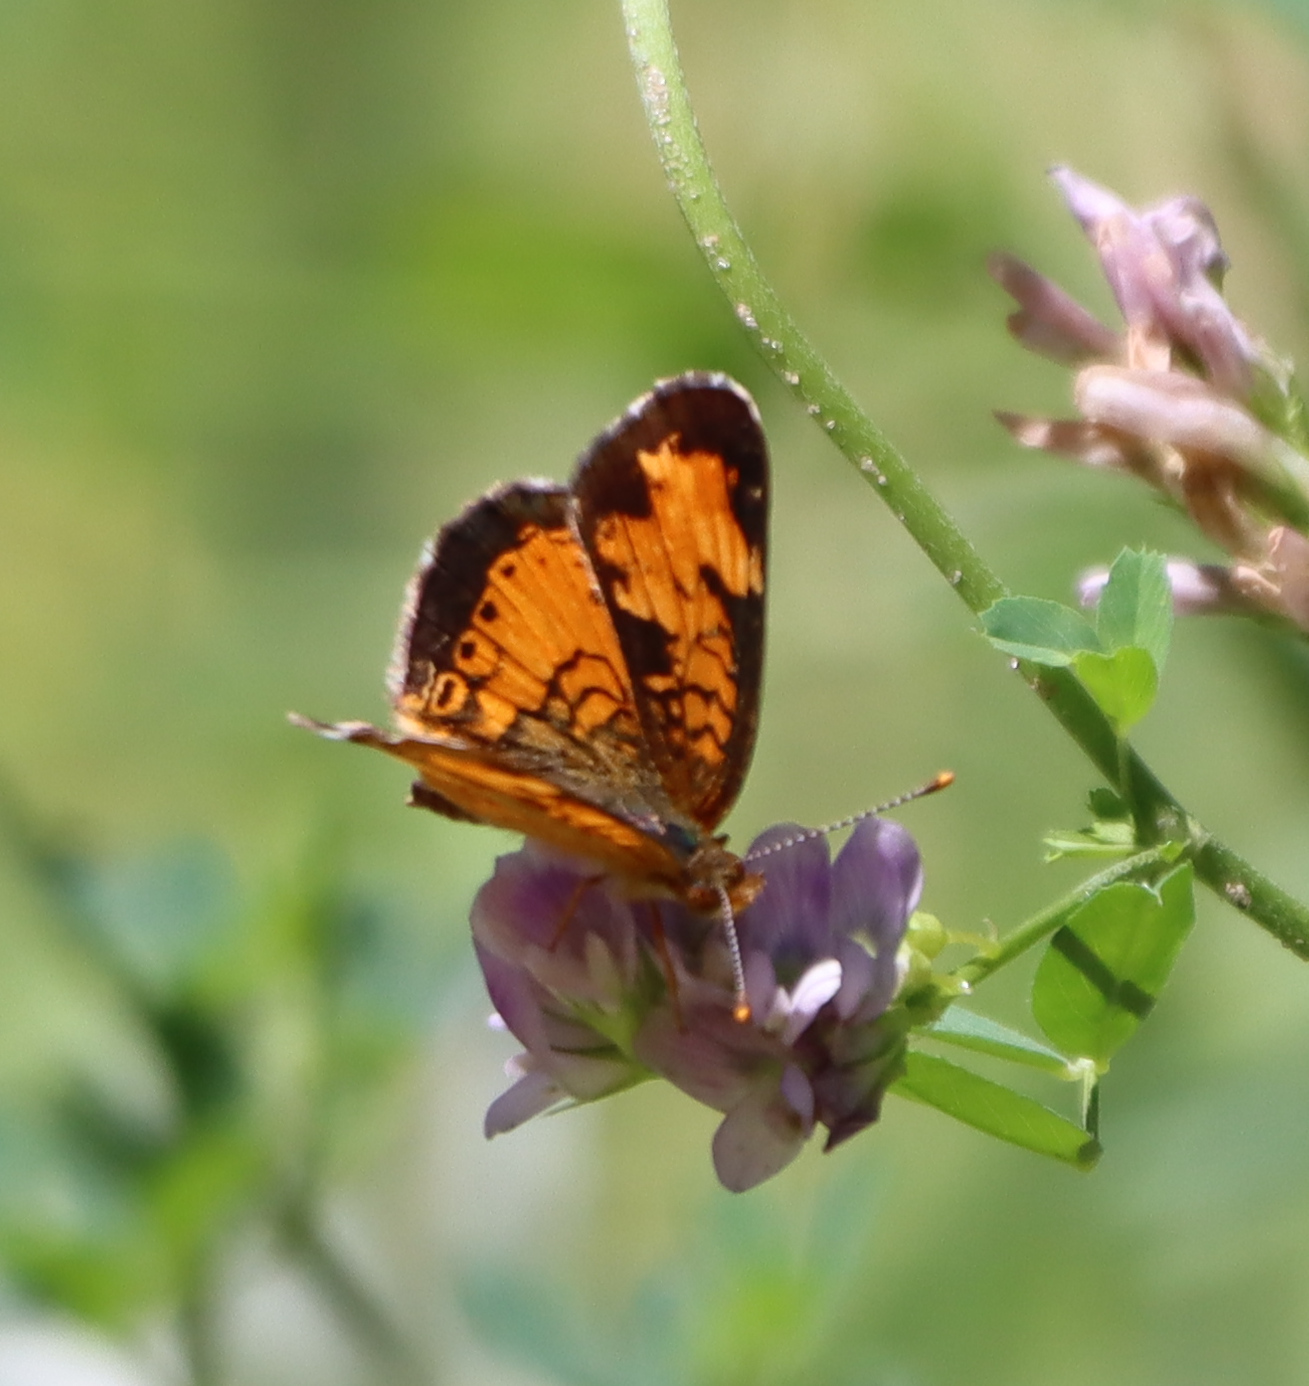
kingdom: Animalia
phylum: Arthropoda
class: Insecta
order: Lepidoptera
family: Nymphalidae
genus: Phyciodes
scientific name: Phyciodes tharos
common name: Pearl crescent
